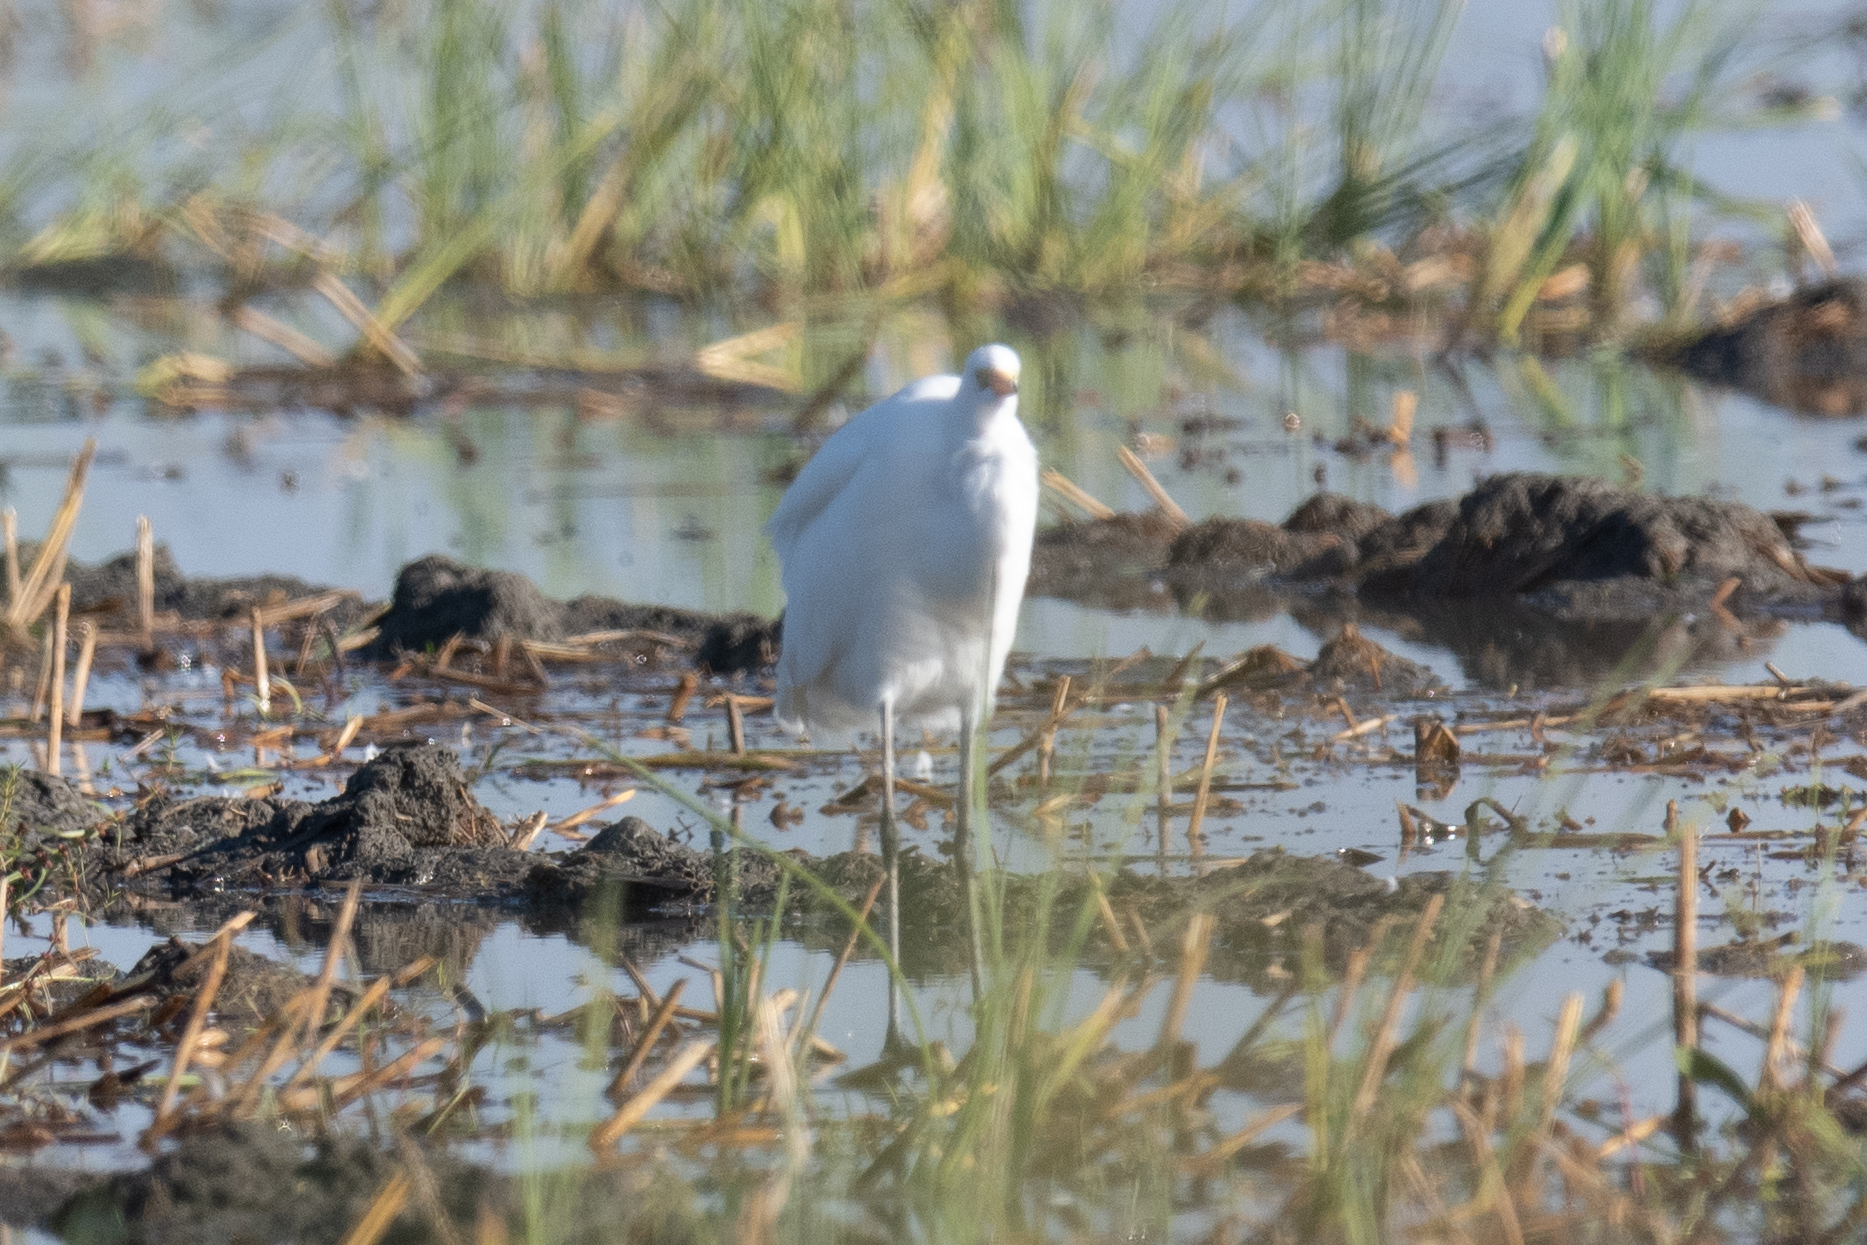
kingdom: Animalia
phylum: Chordata
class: Aves
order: Pelecaniformes
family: Ardeidae
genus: Ardea
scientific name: Ardea alba
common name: Great egret
